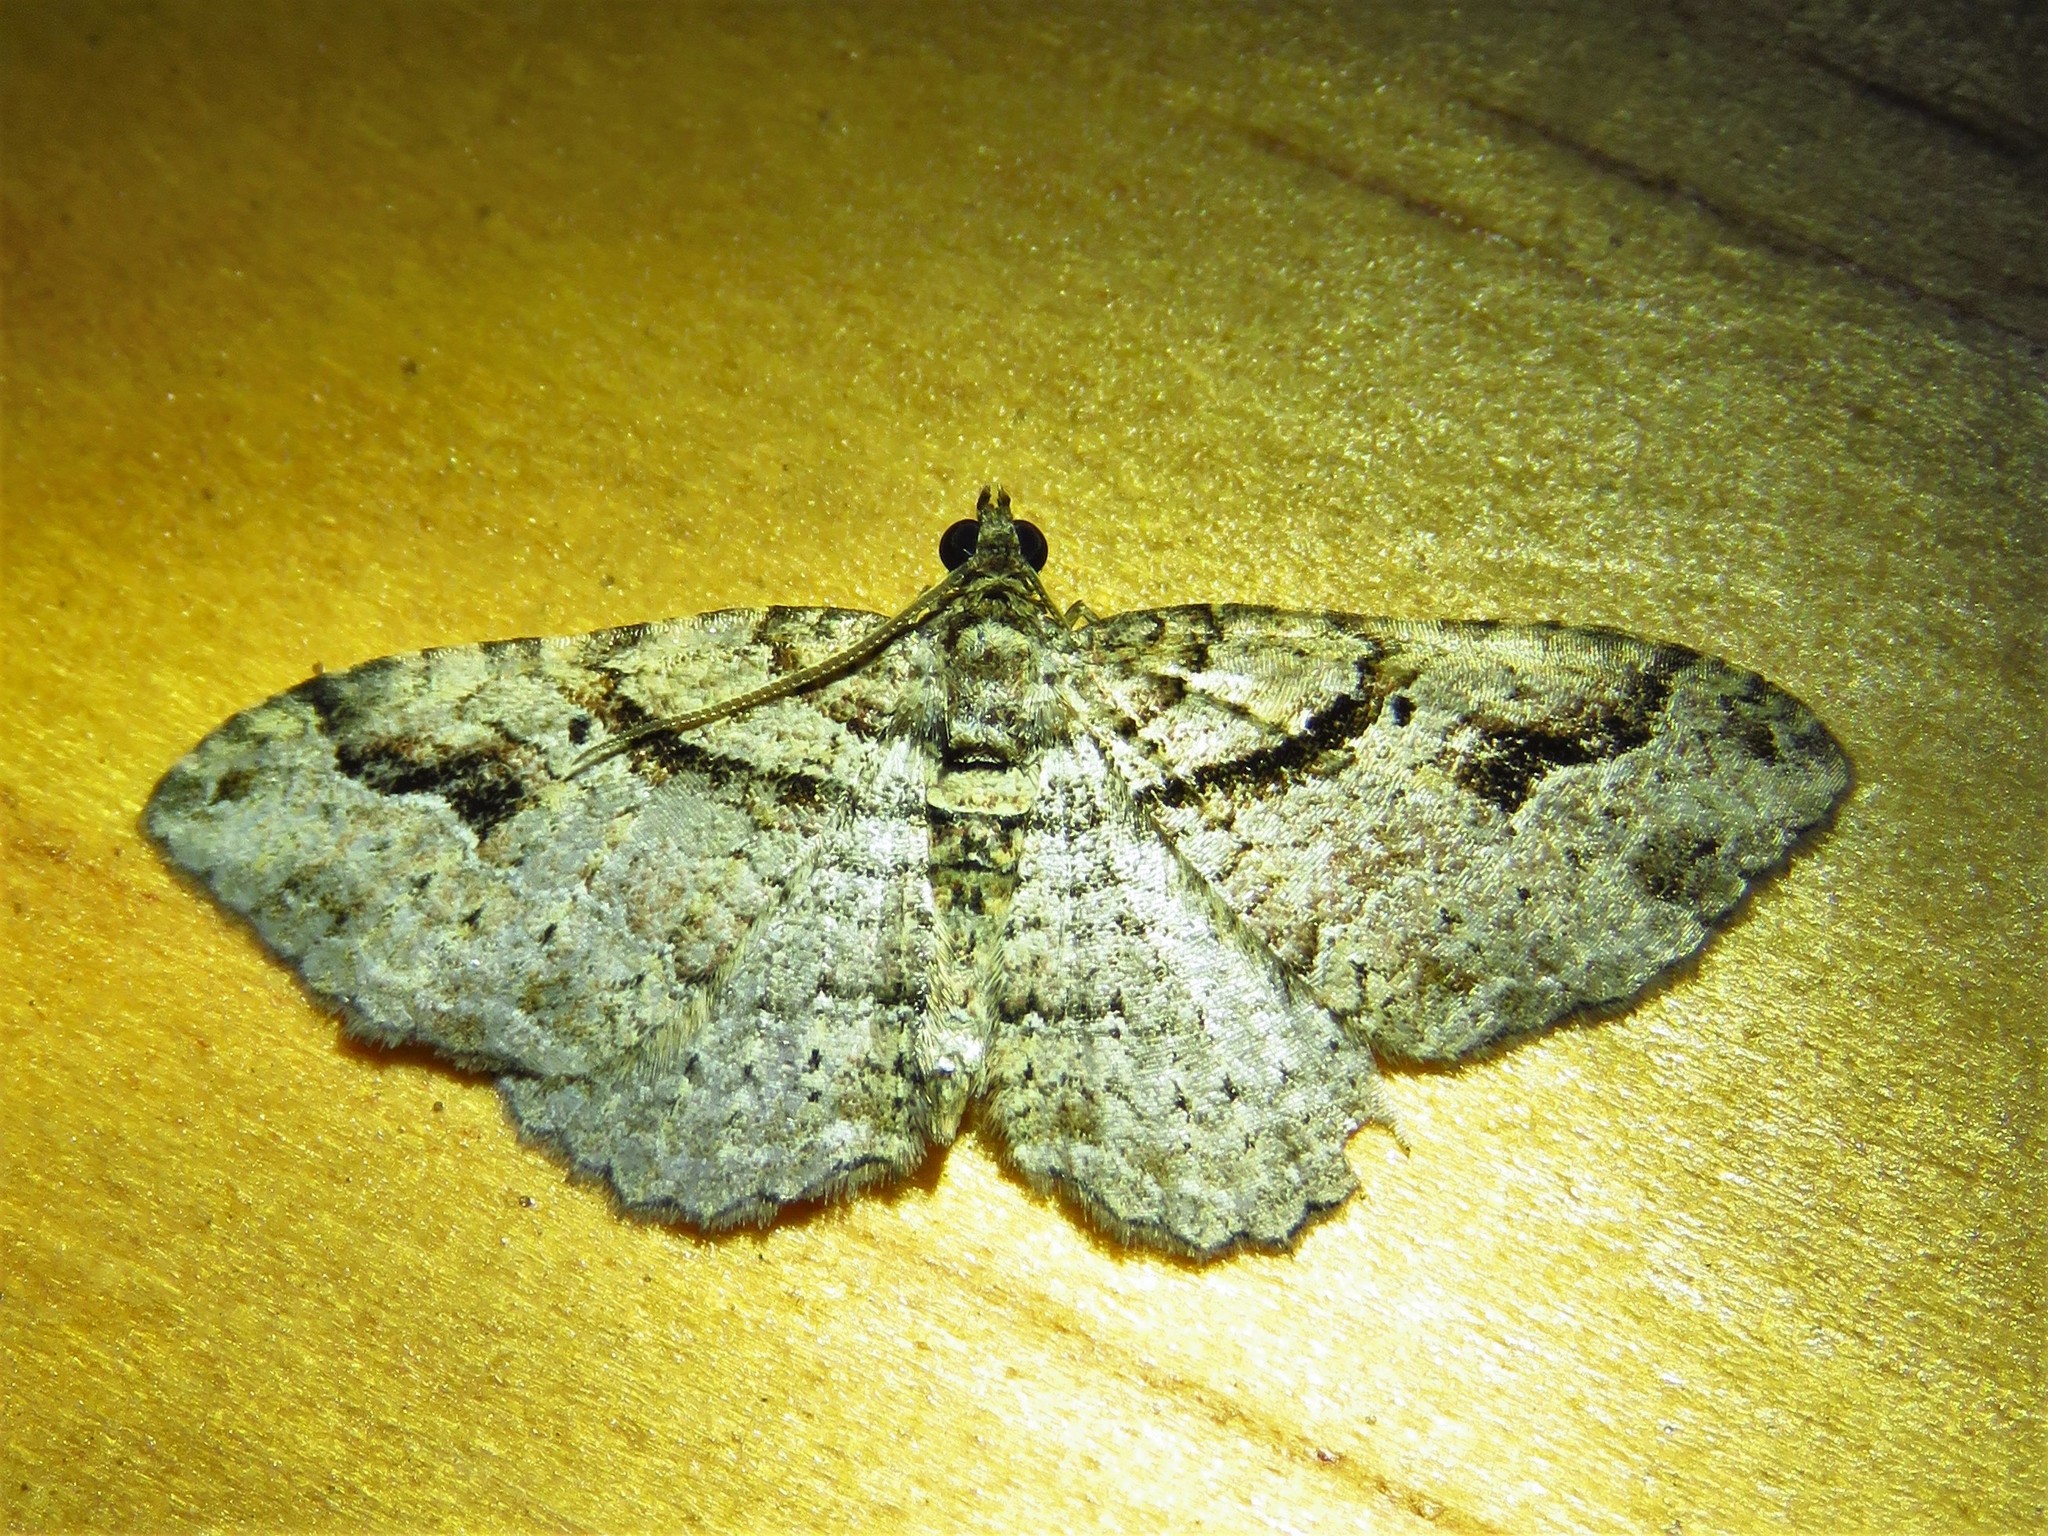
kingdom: Animalia
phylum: Arthropoda
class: Insecta
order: Lepidoptera
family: Geometridae
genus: Costaconvexa
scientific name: Costaconvexa centrostrigaria
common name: Bent-line carpet
